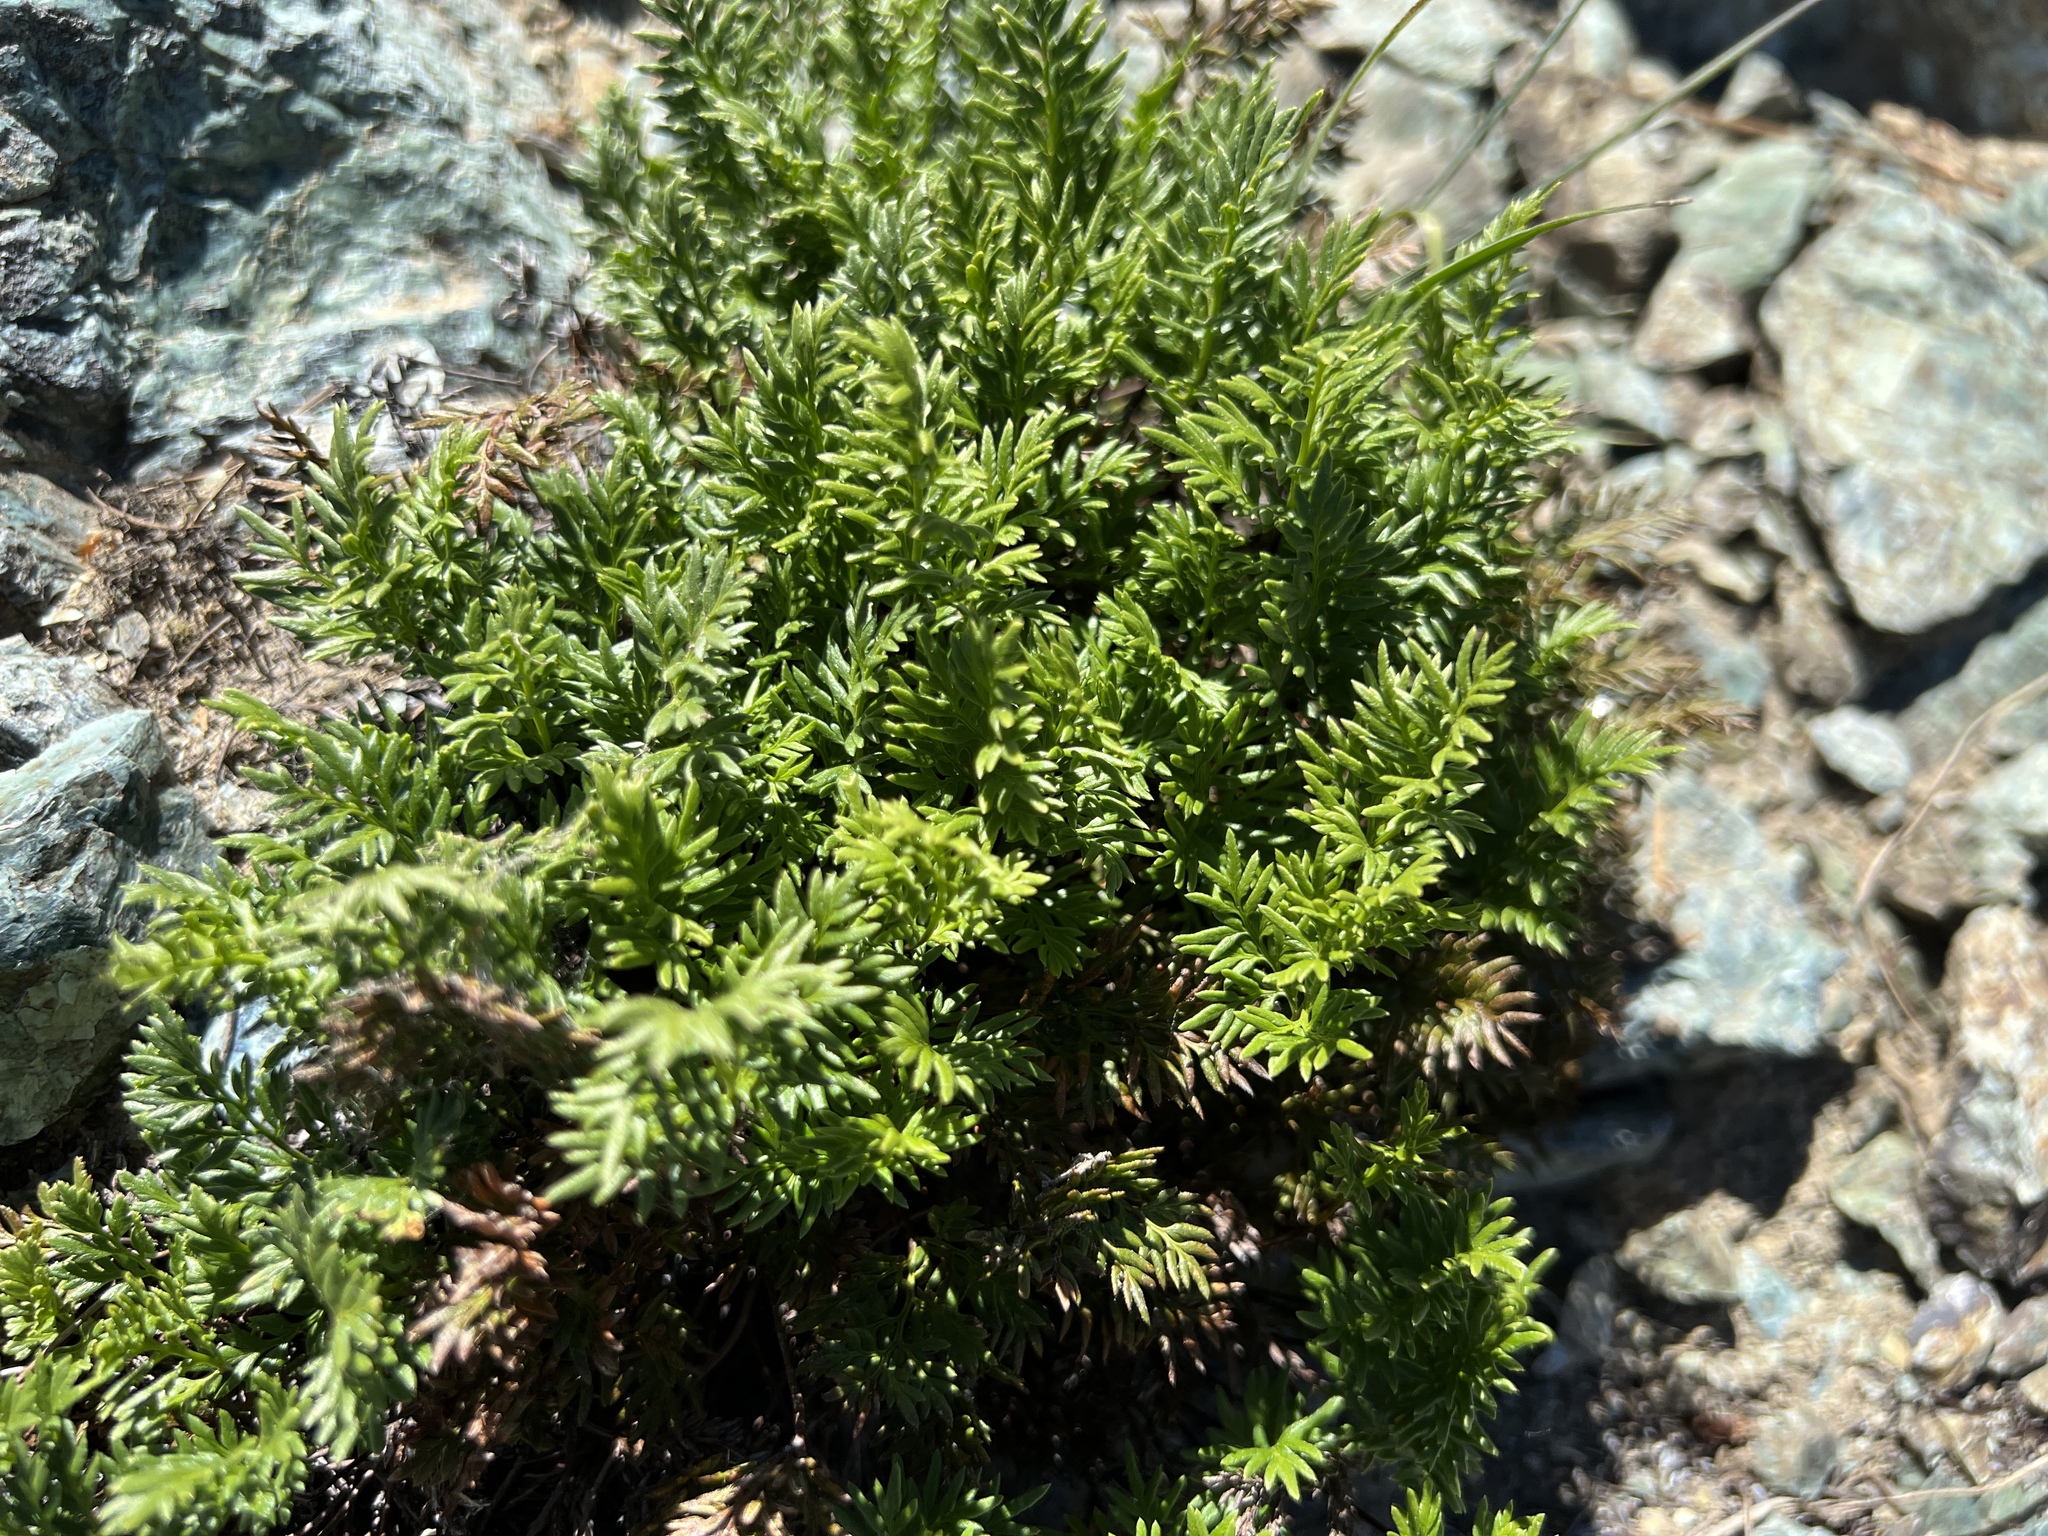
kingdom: Plantae
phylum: Tracheophyta
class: Polypodiopsida
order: Polypodiales
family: Pteridaceae
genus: Aspidotis
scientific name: Aspidotis densa
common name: Indian's dream
